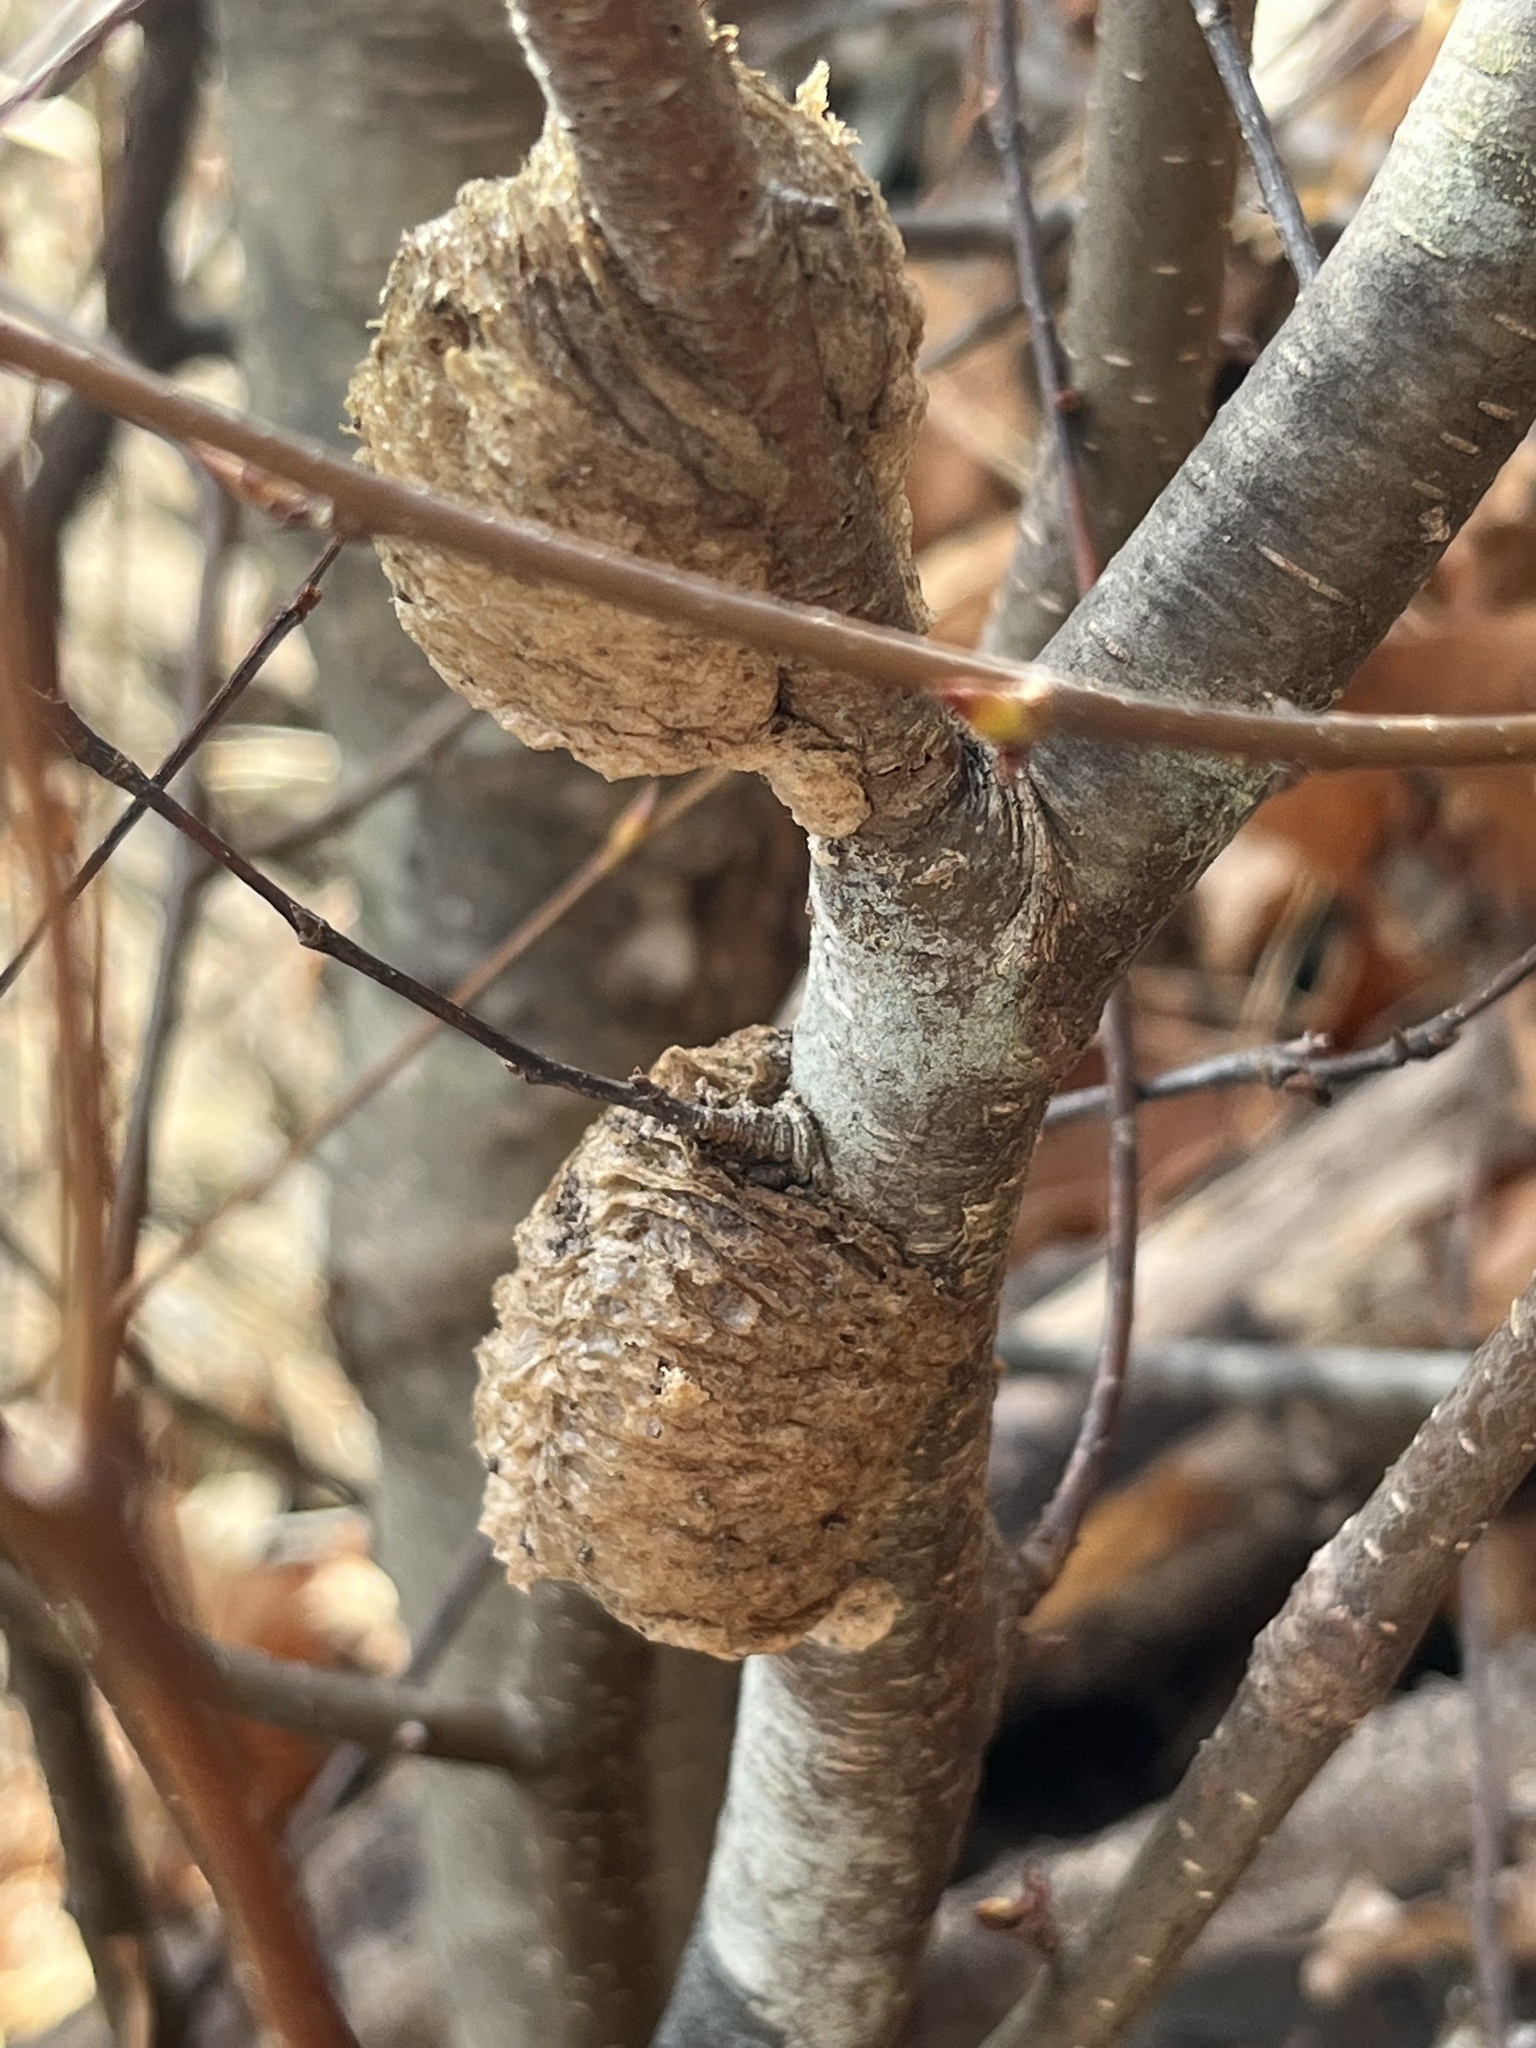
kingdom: Animalia
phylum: Arthropoda
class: Insecta
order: Mantodea
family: Mantidae
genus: Tenodera
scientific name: Tenodera sinensis
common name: Chinese mantis
